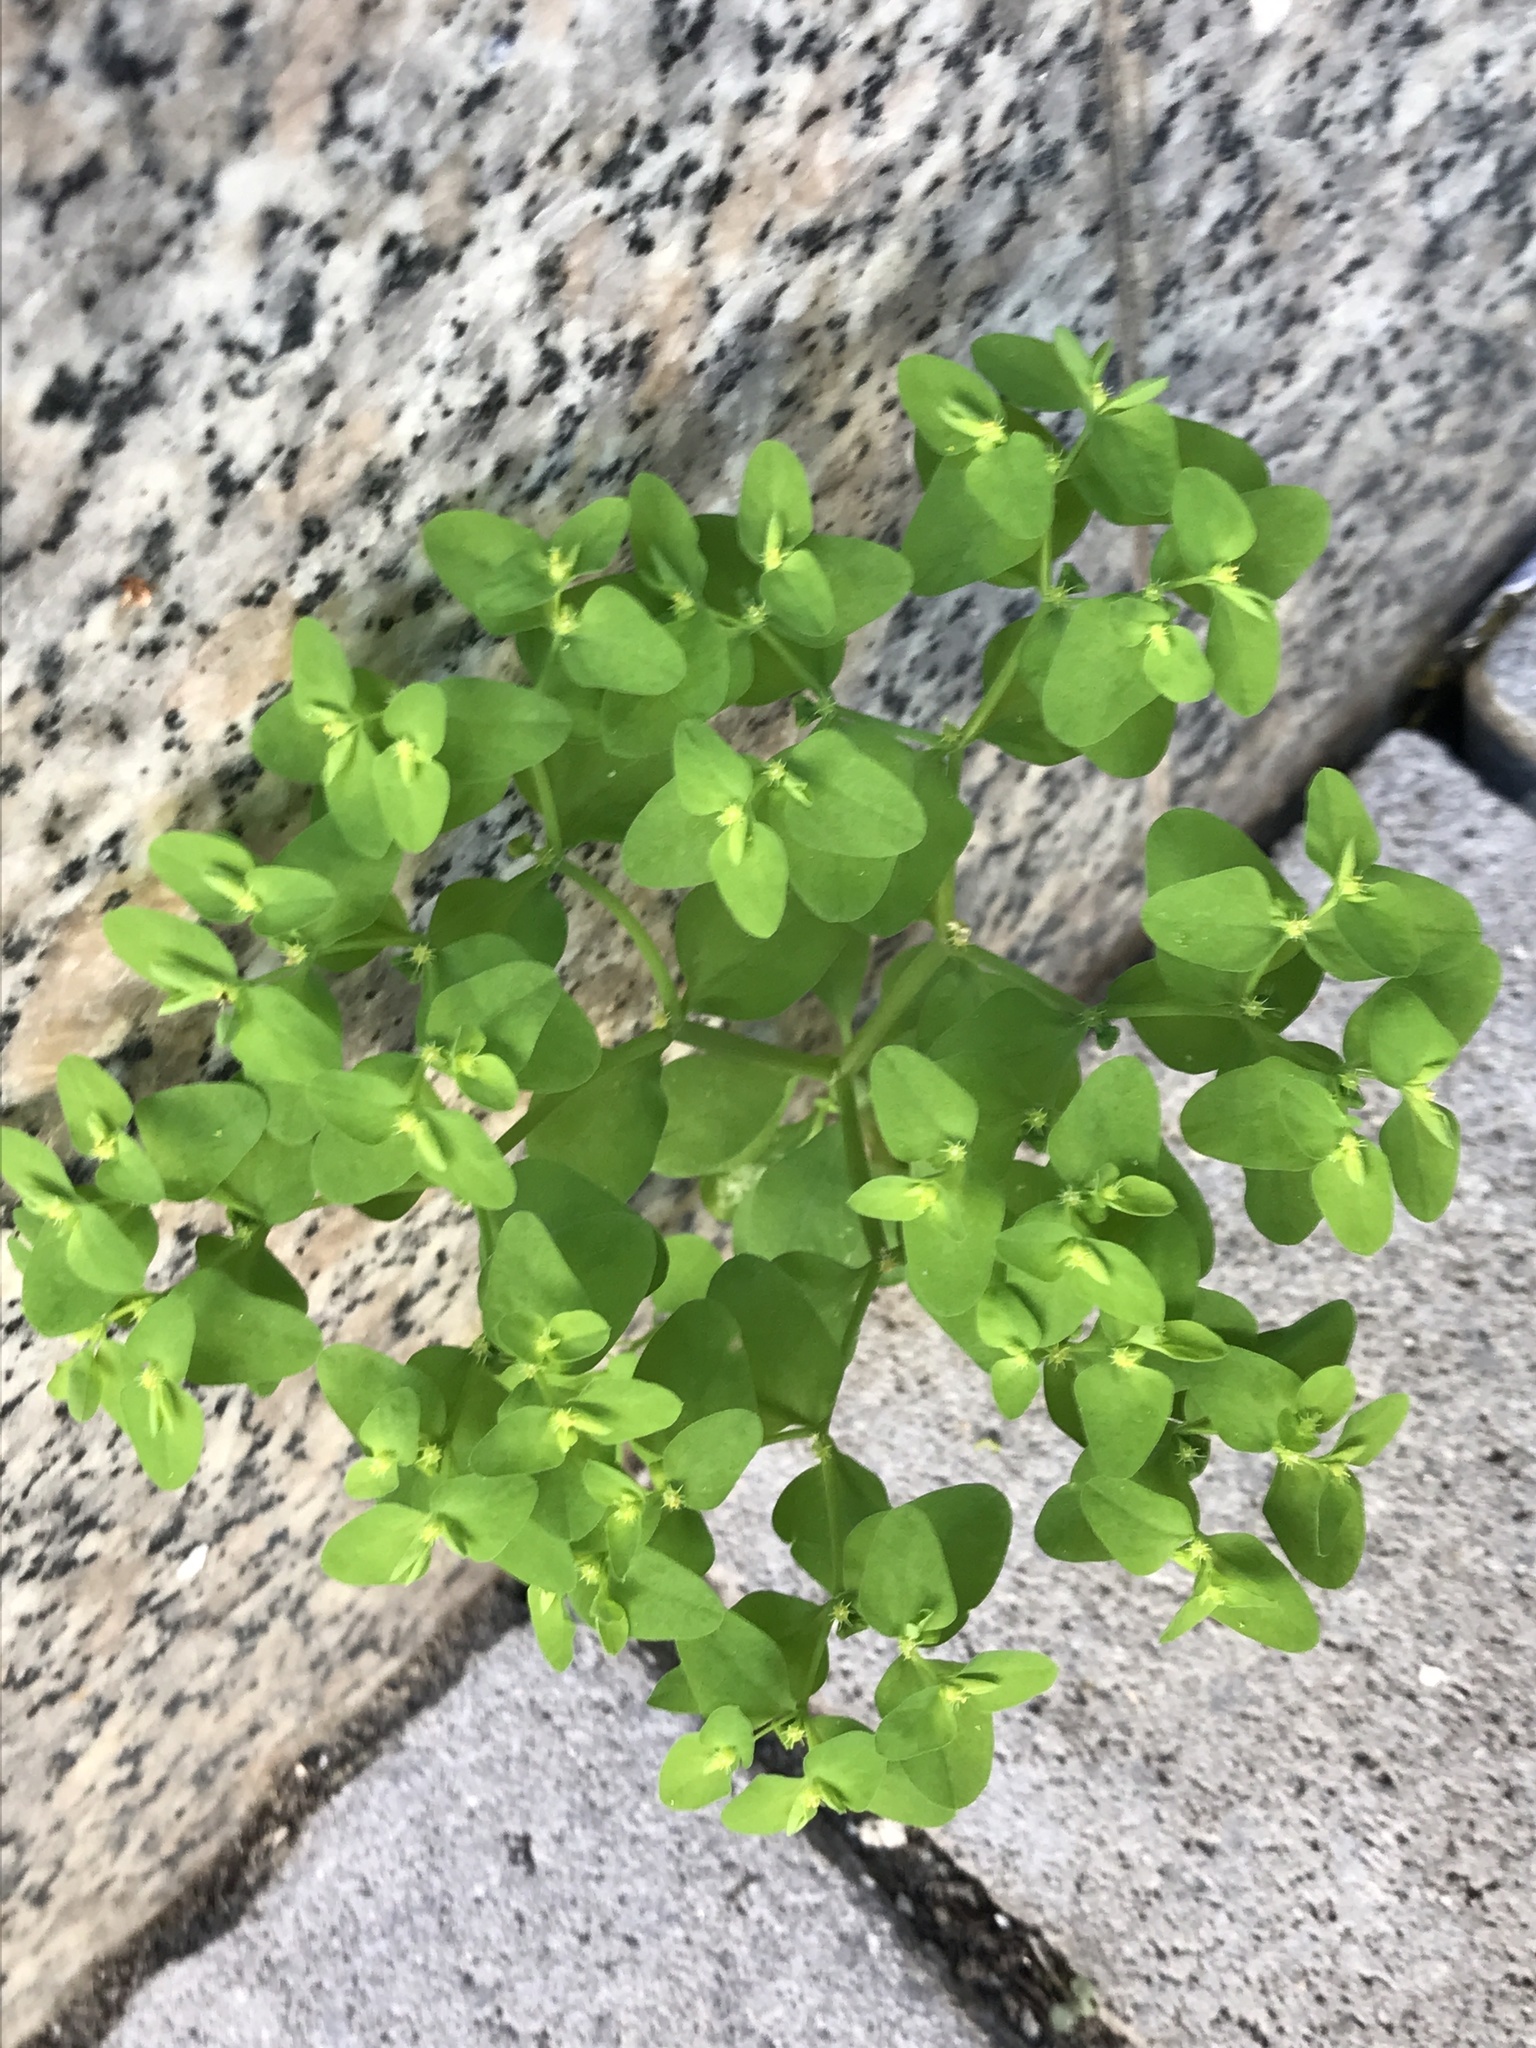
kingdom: Plantae
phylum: Tracheophyta
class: Magnoliopsida
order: Malpighiales
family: Euphorbiaceae
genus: Euphorbia
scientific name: Euphorbia peplus
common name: Petty spurge
